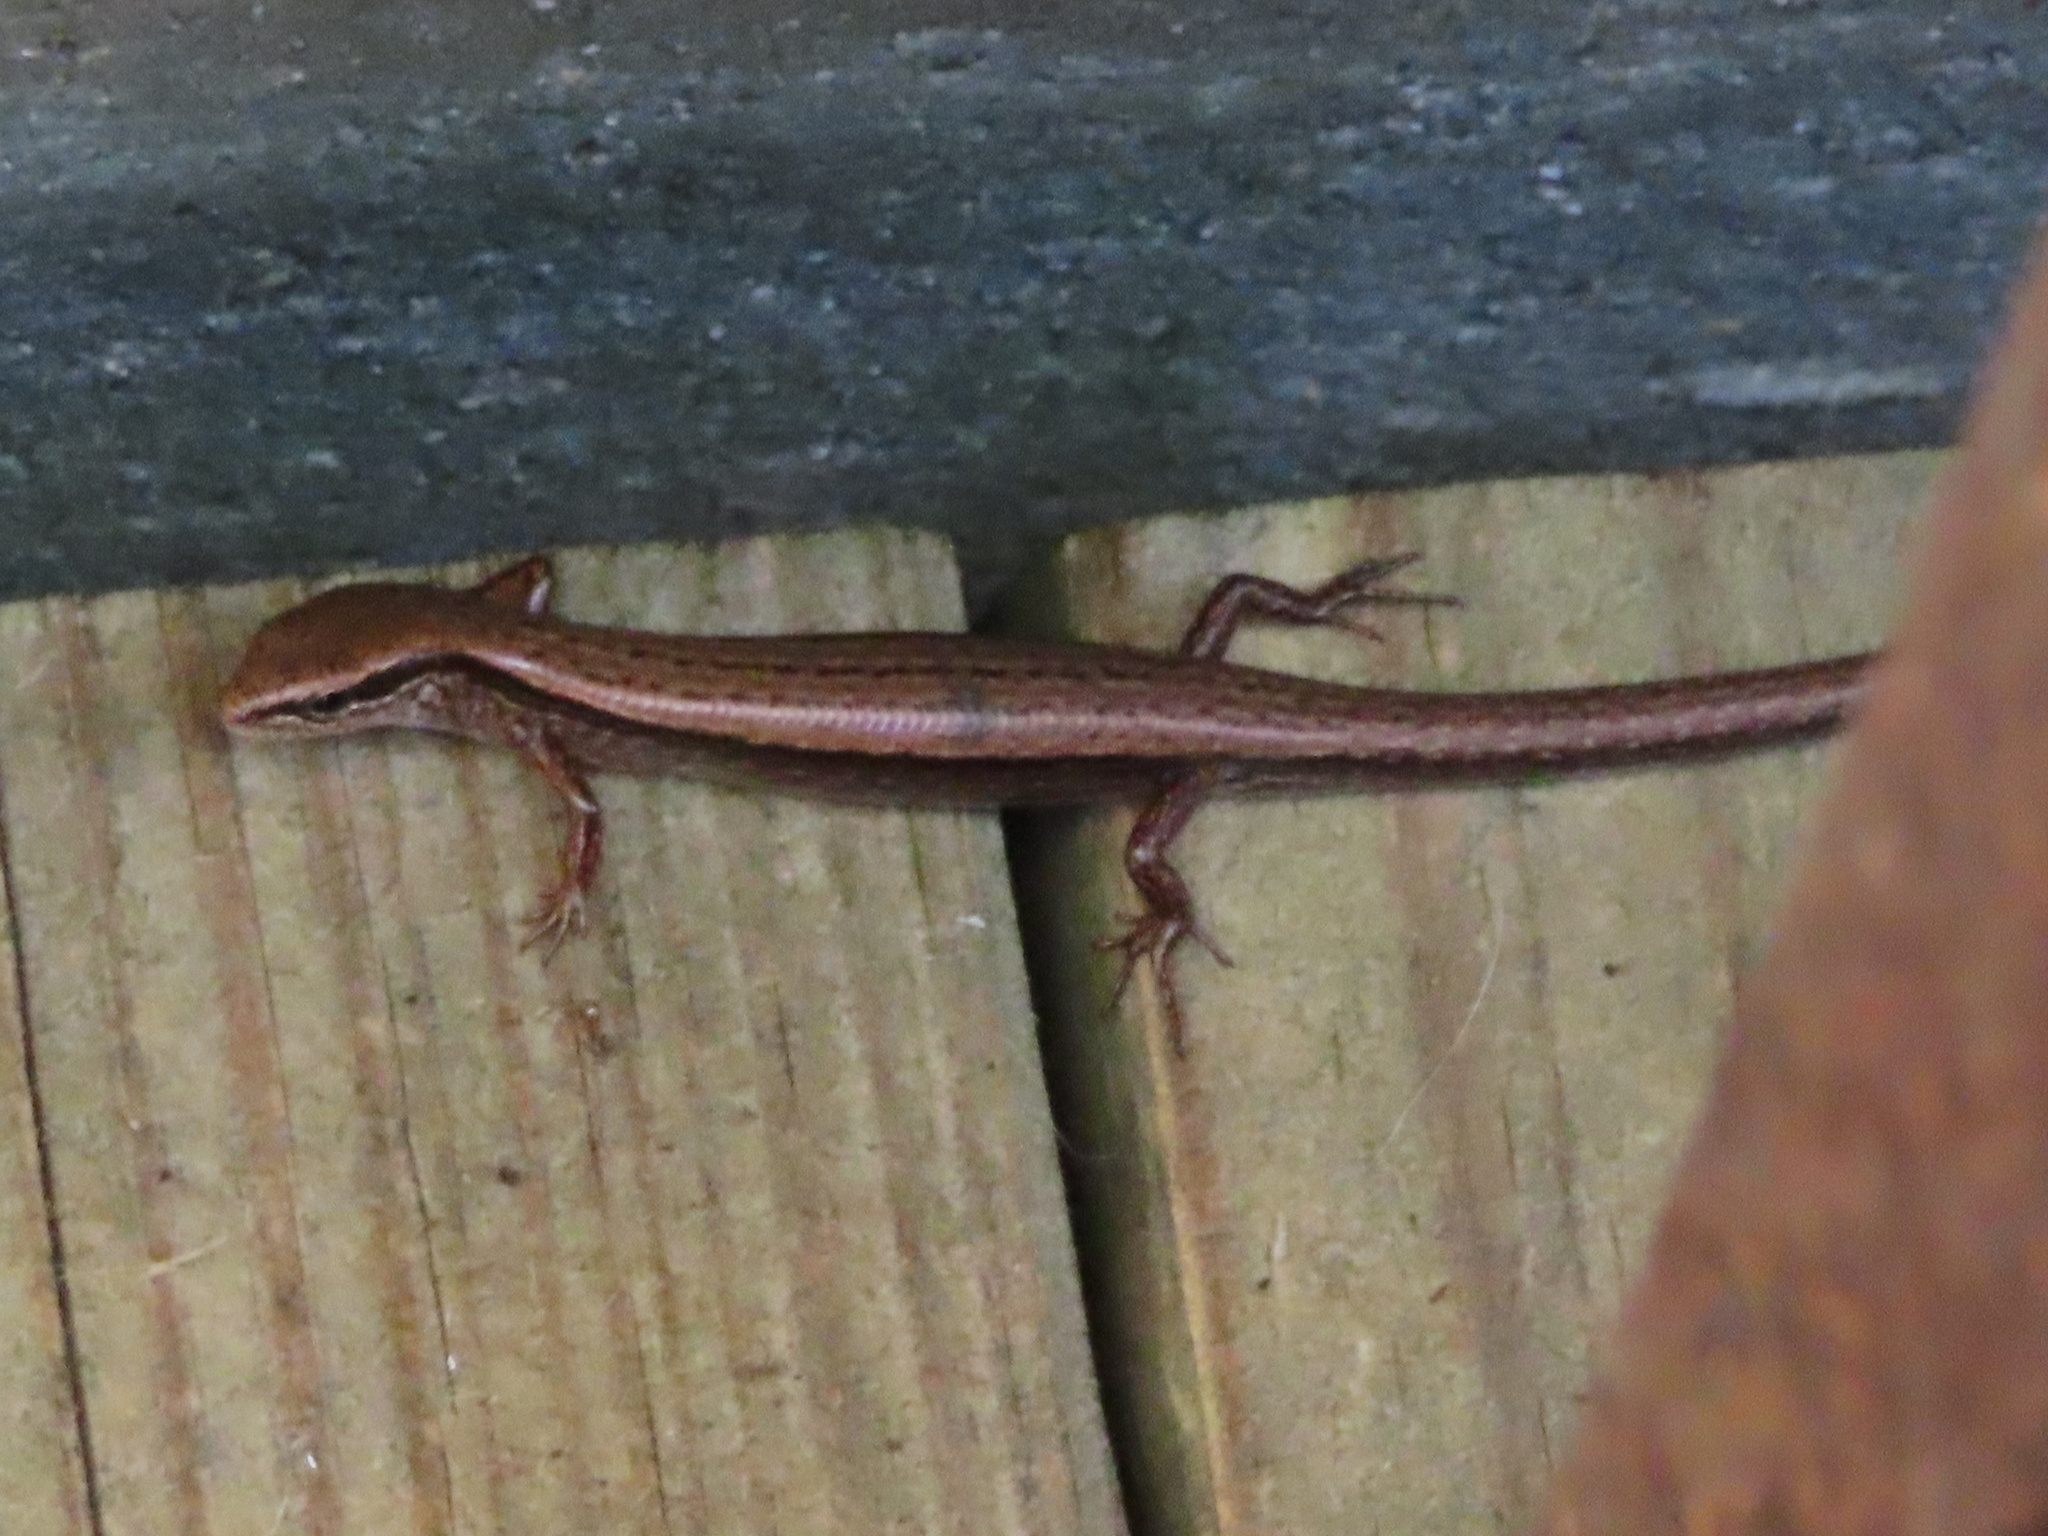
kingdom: Animalia
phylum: Chordata
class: Squamata
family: Scincidae
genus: Scincella
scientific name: Scincella lateralis
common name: Ground skink
